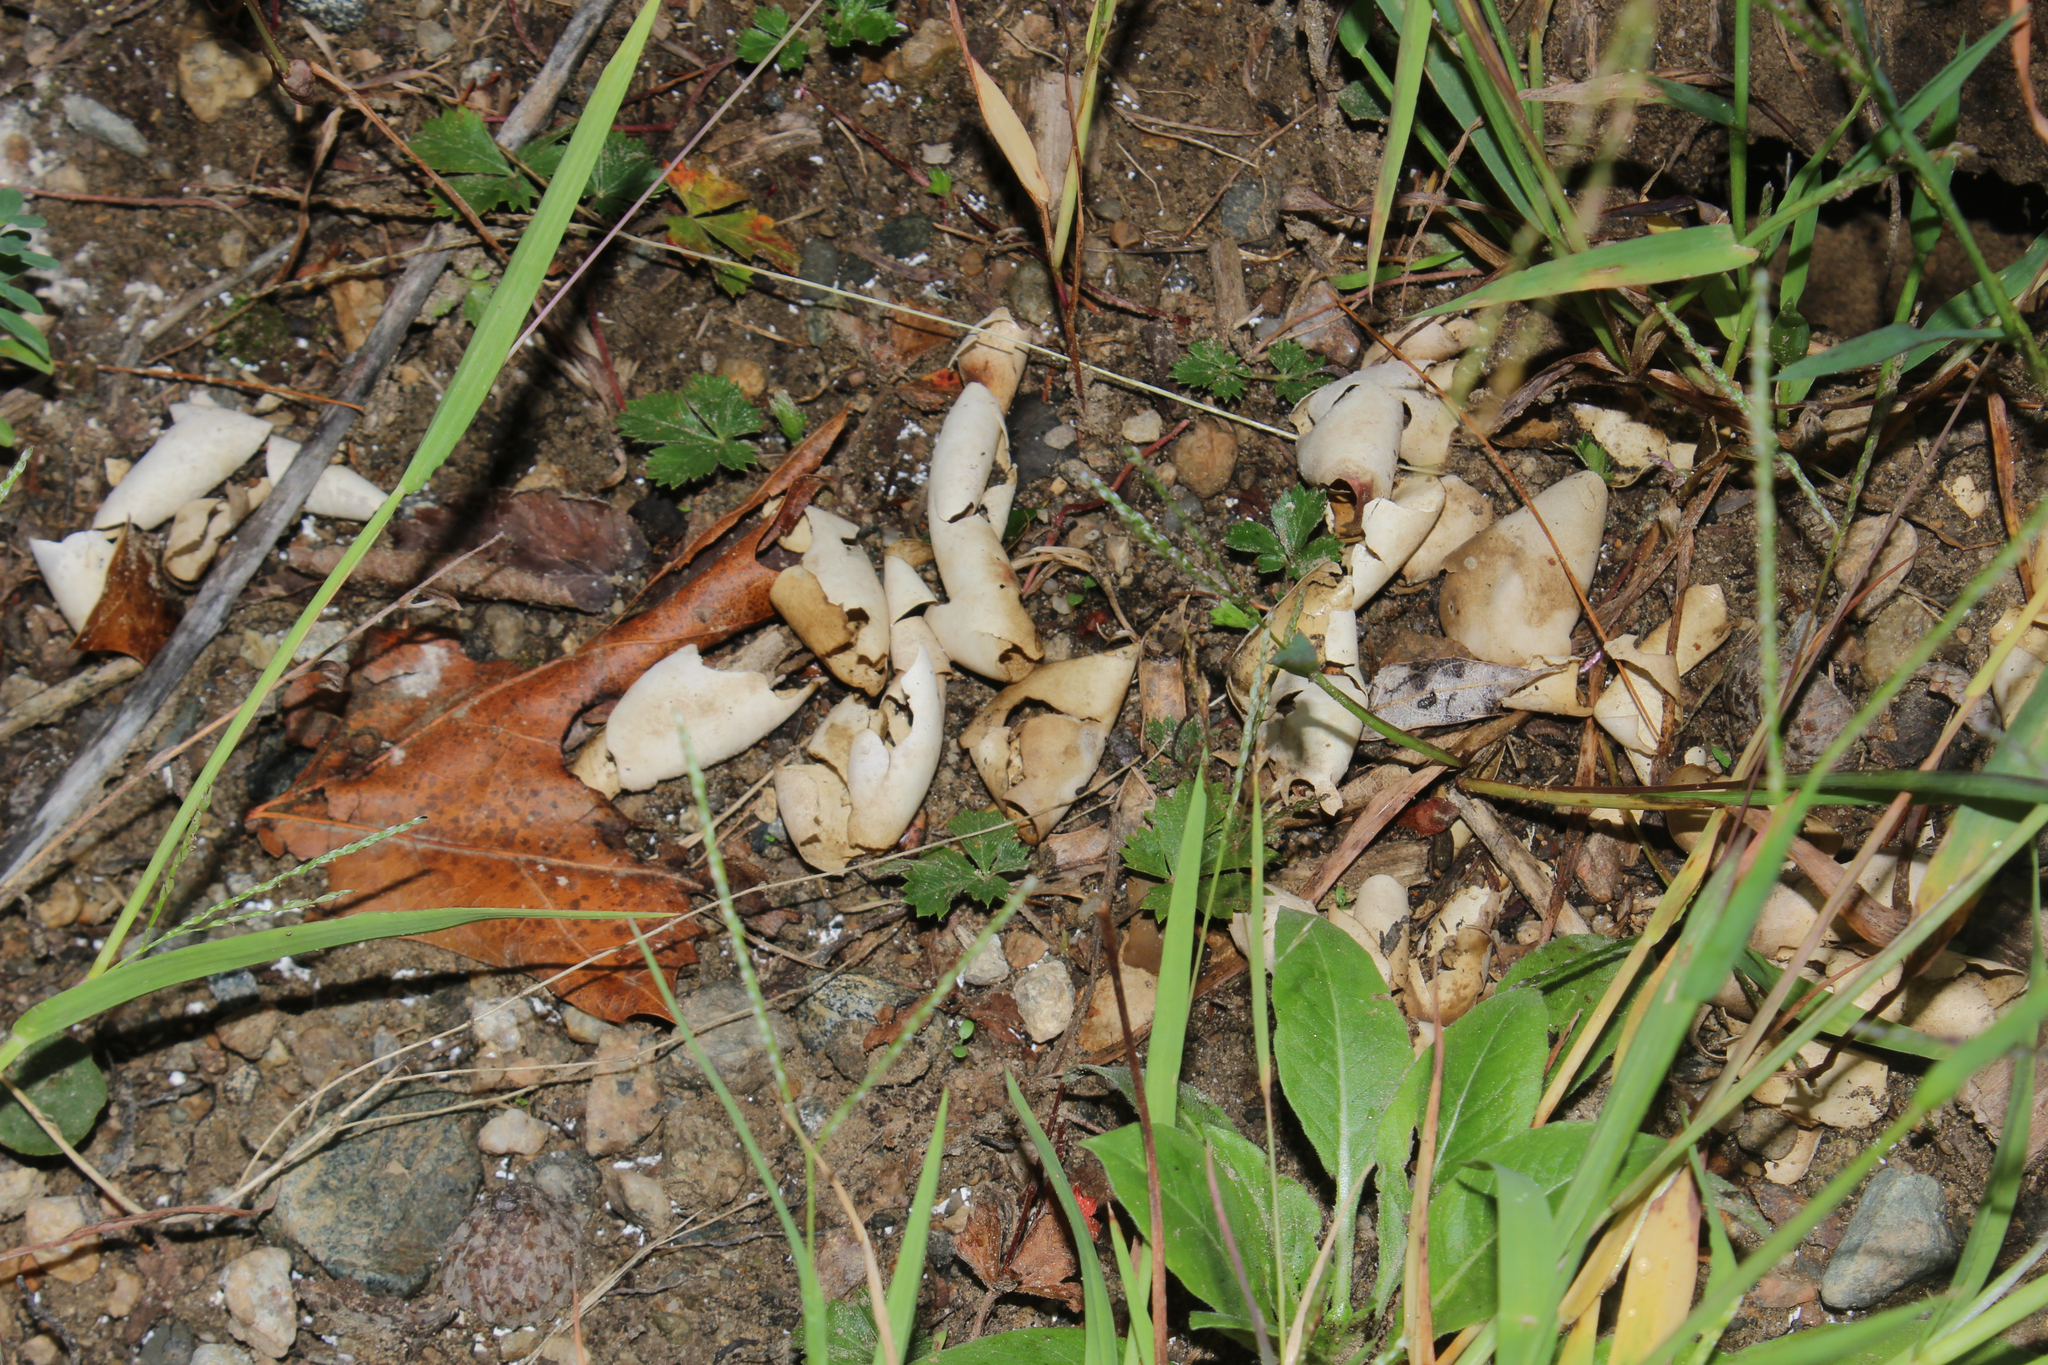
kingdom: Animalia
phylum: Chordata
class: Testudines
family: Emydidae
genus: Chrysemys
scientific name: Chrysemys picta
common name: Painted turtle
